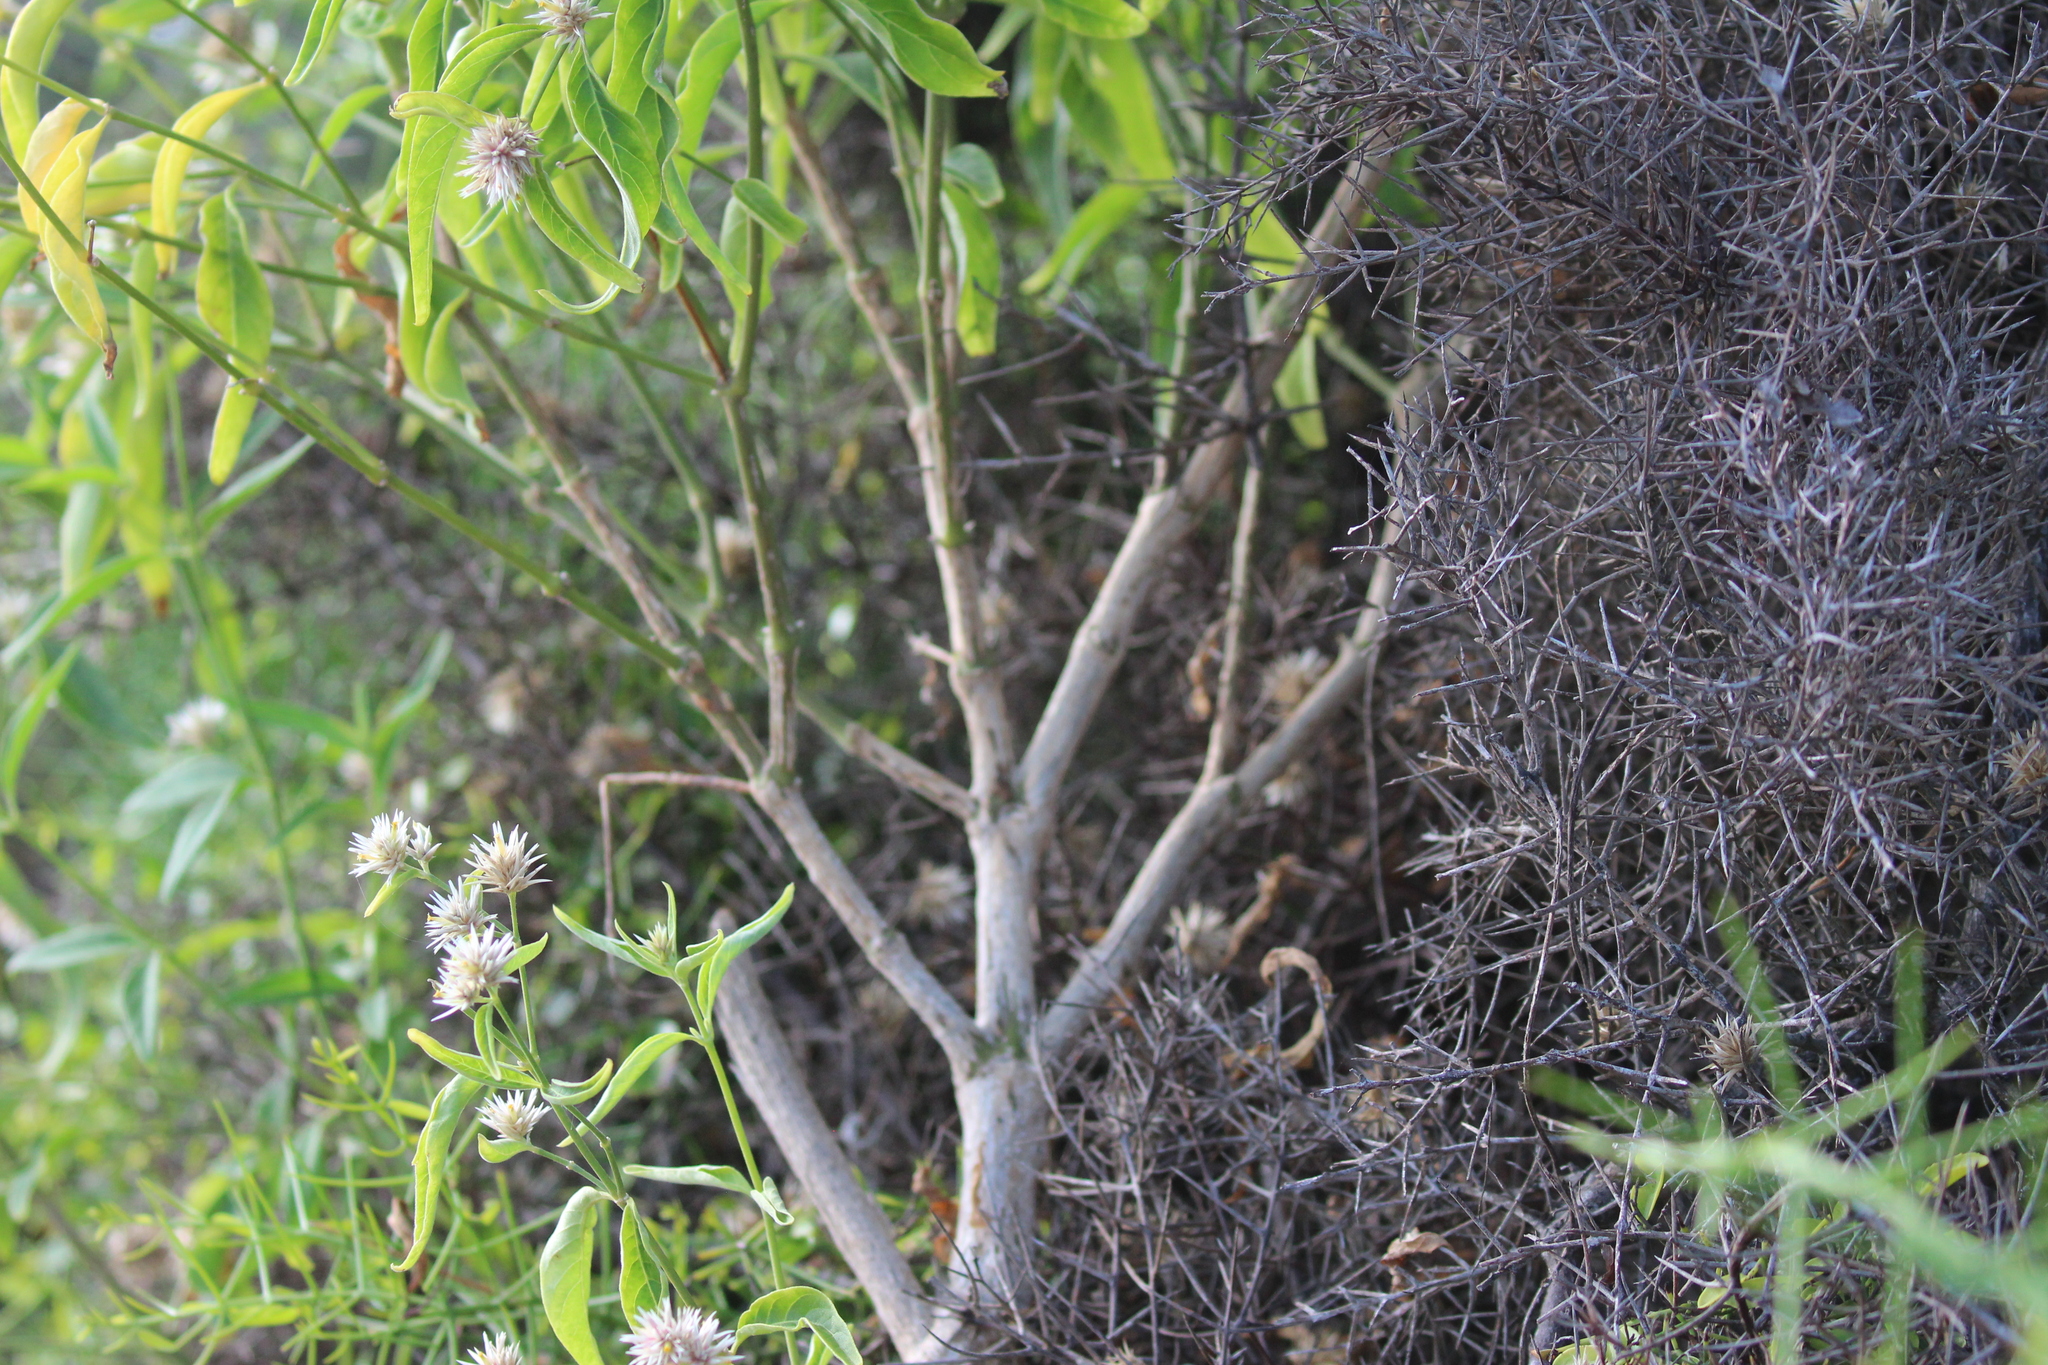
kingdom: Plantae
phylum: Tracheophyta
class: Magnoliopsida
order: Caryophyllales
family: Amaranthaceae
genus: Alternanthera
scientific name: Alternanthera echinocephala
